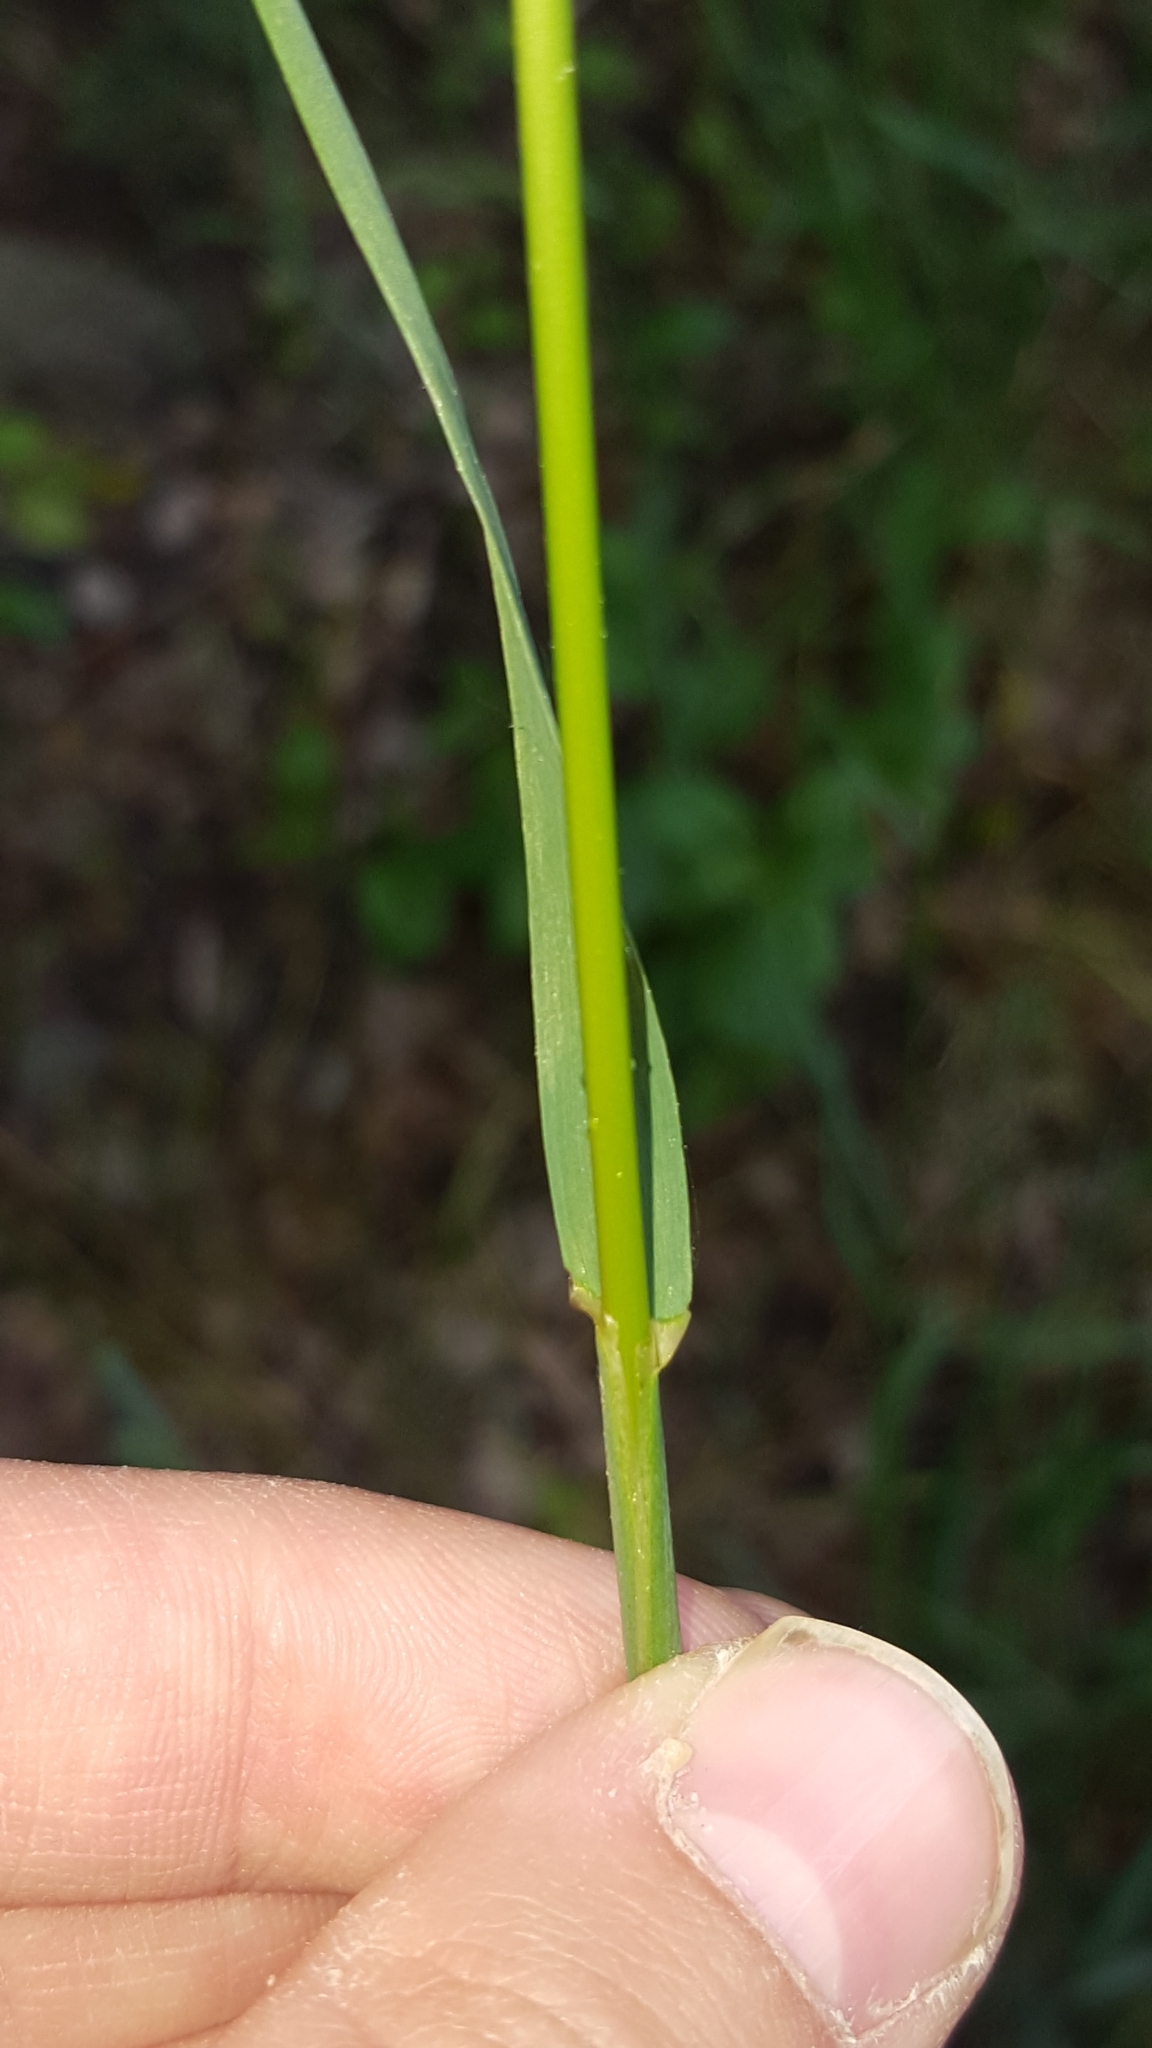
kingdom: Plantae
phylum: Tracheophyta
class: Liliopsida
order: Poales
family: Poaceae
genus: Arrhenatherum
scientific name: Arrhenatherum elatius
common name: Tall oatgrass
